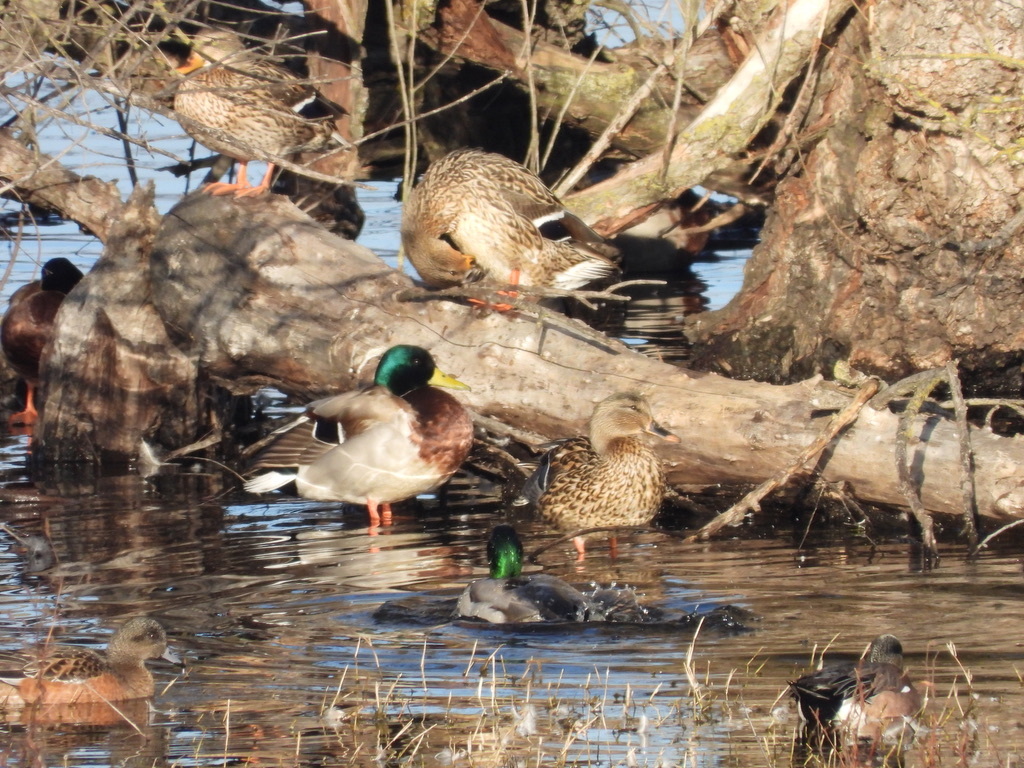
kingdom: Animalia
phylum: Chordata
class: Aves
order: Anseriformes
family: Anatidae
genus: Anas
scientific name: Anas platyrhynchos
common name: Mallard
